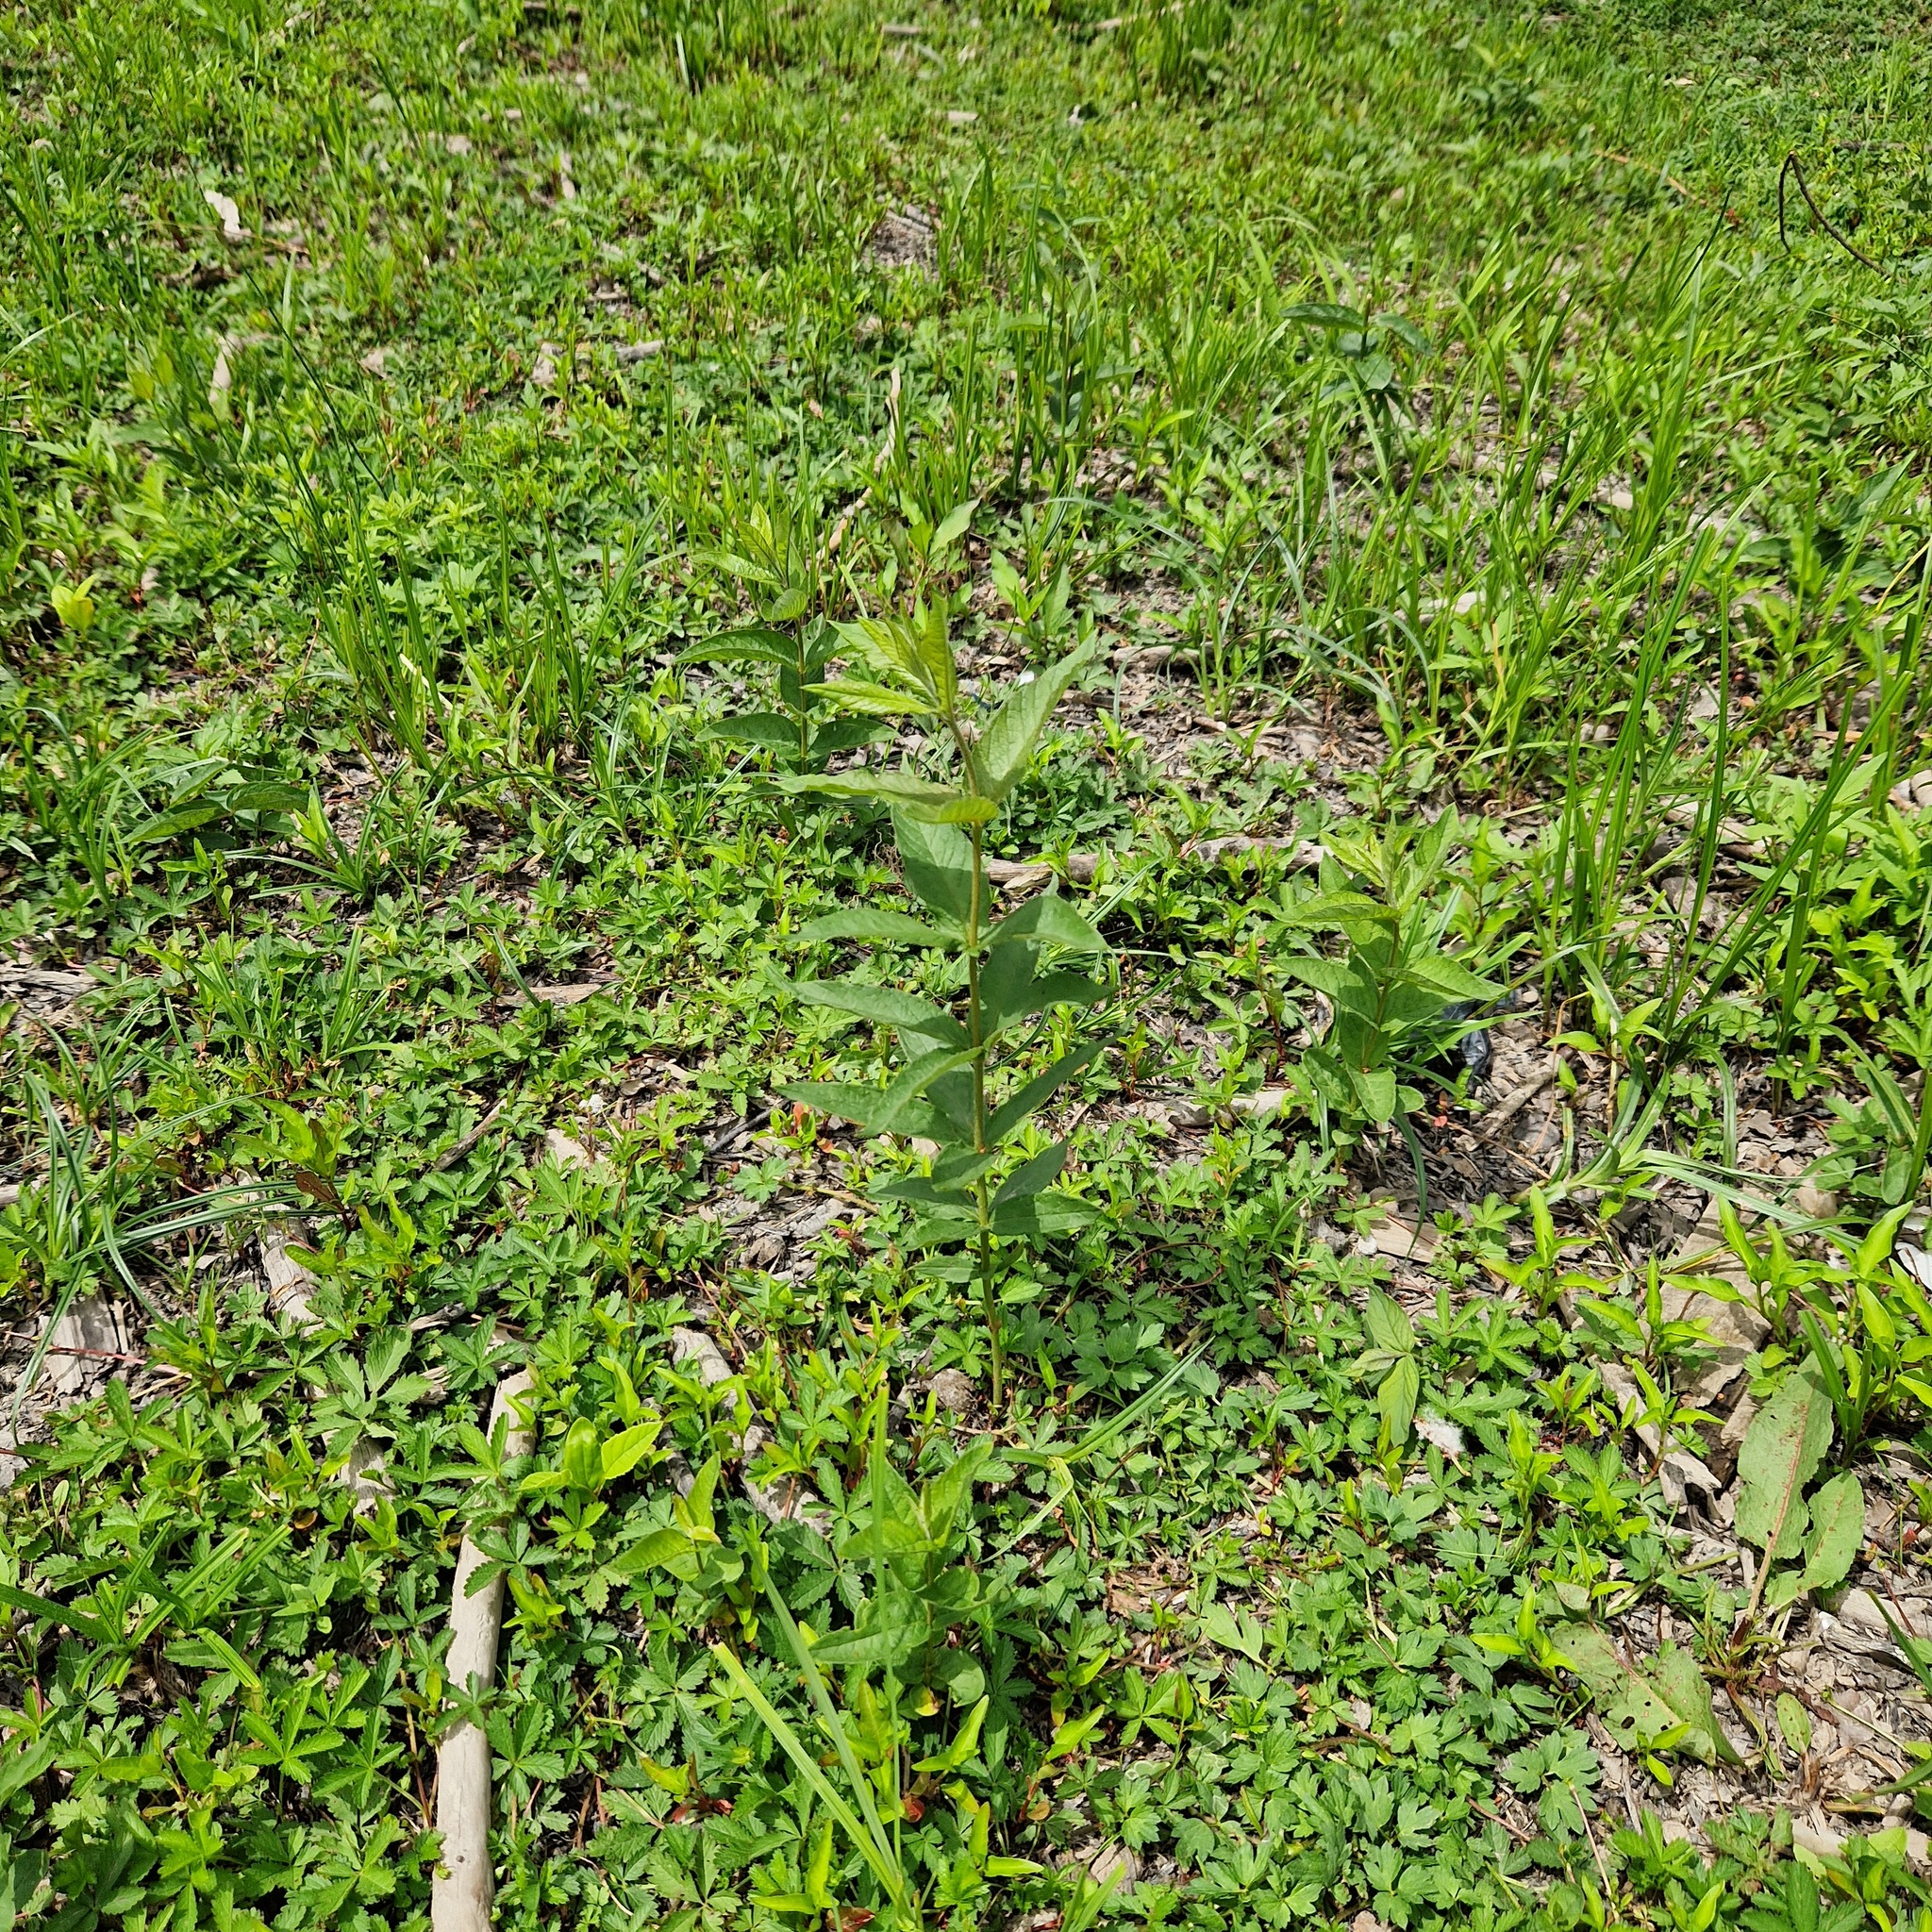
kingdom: Plantae
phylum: Tracheophyta
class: Magnoliopsida
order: Ericales
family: Primulaceae
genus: Lysimachia
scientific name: Lysimachia vulgaris
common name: Yellow loosestrife
